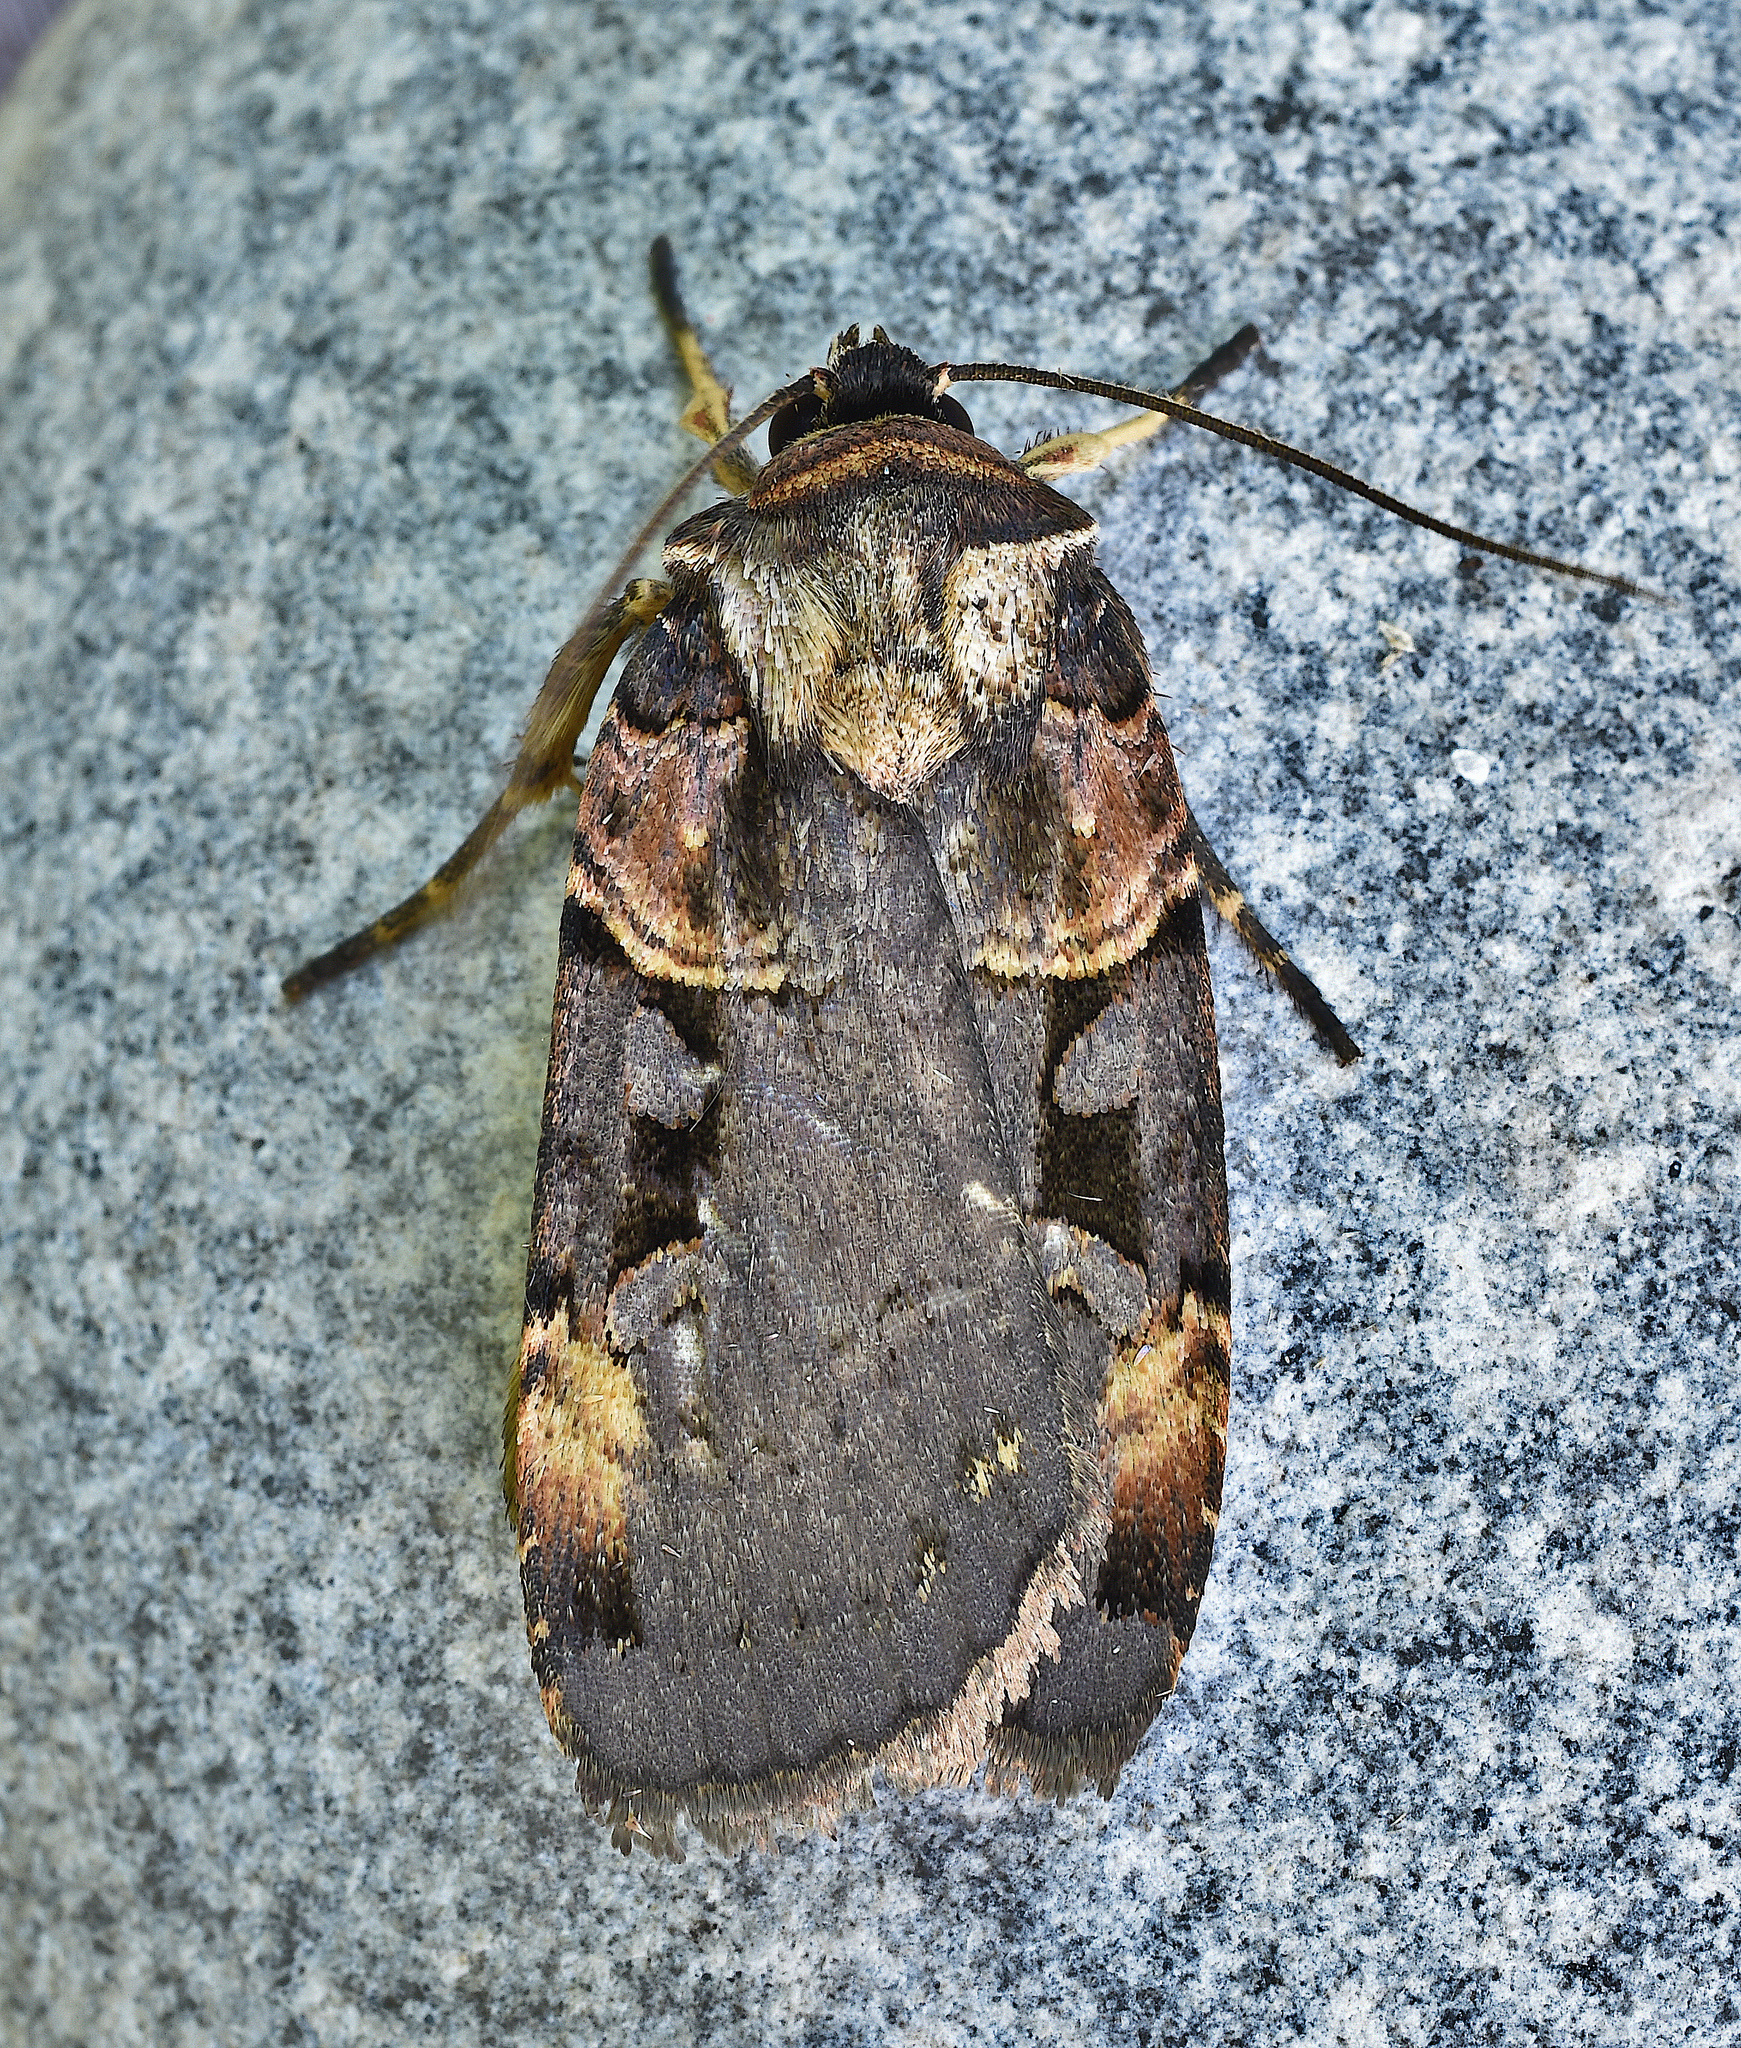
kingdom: Animalia
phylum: Arthropoda
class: Insecta
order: Lepidoptera
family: Noctuidae
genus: Pseudohermonassa
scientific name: Pseudohermonassa bicarnea
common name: Pink spotted dart
